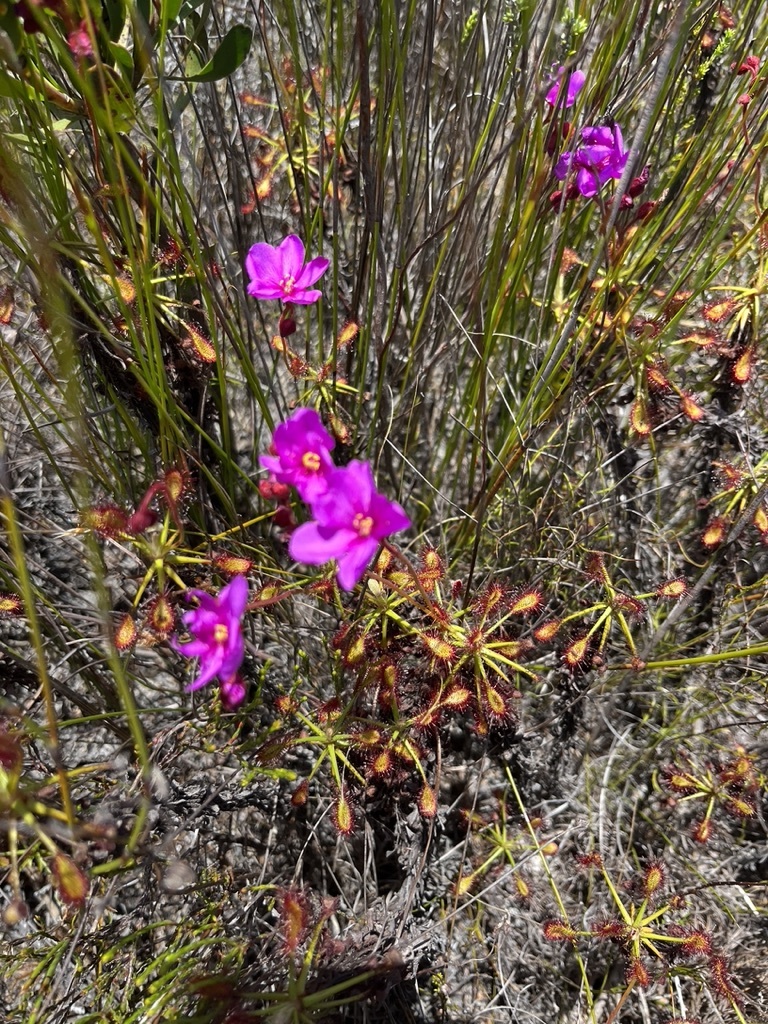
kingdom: Plantae
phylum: Tracheophyta
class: Magnoliopsida
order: Caryophyllales
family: Droseraceae
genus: Drosera
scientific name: Drosera glabripes
